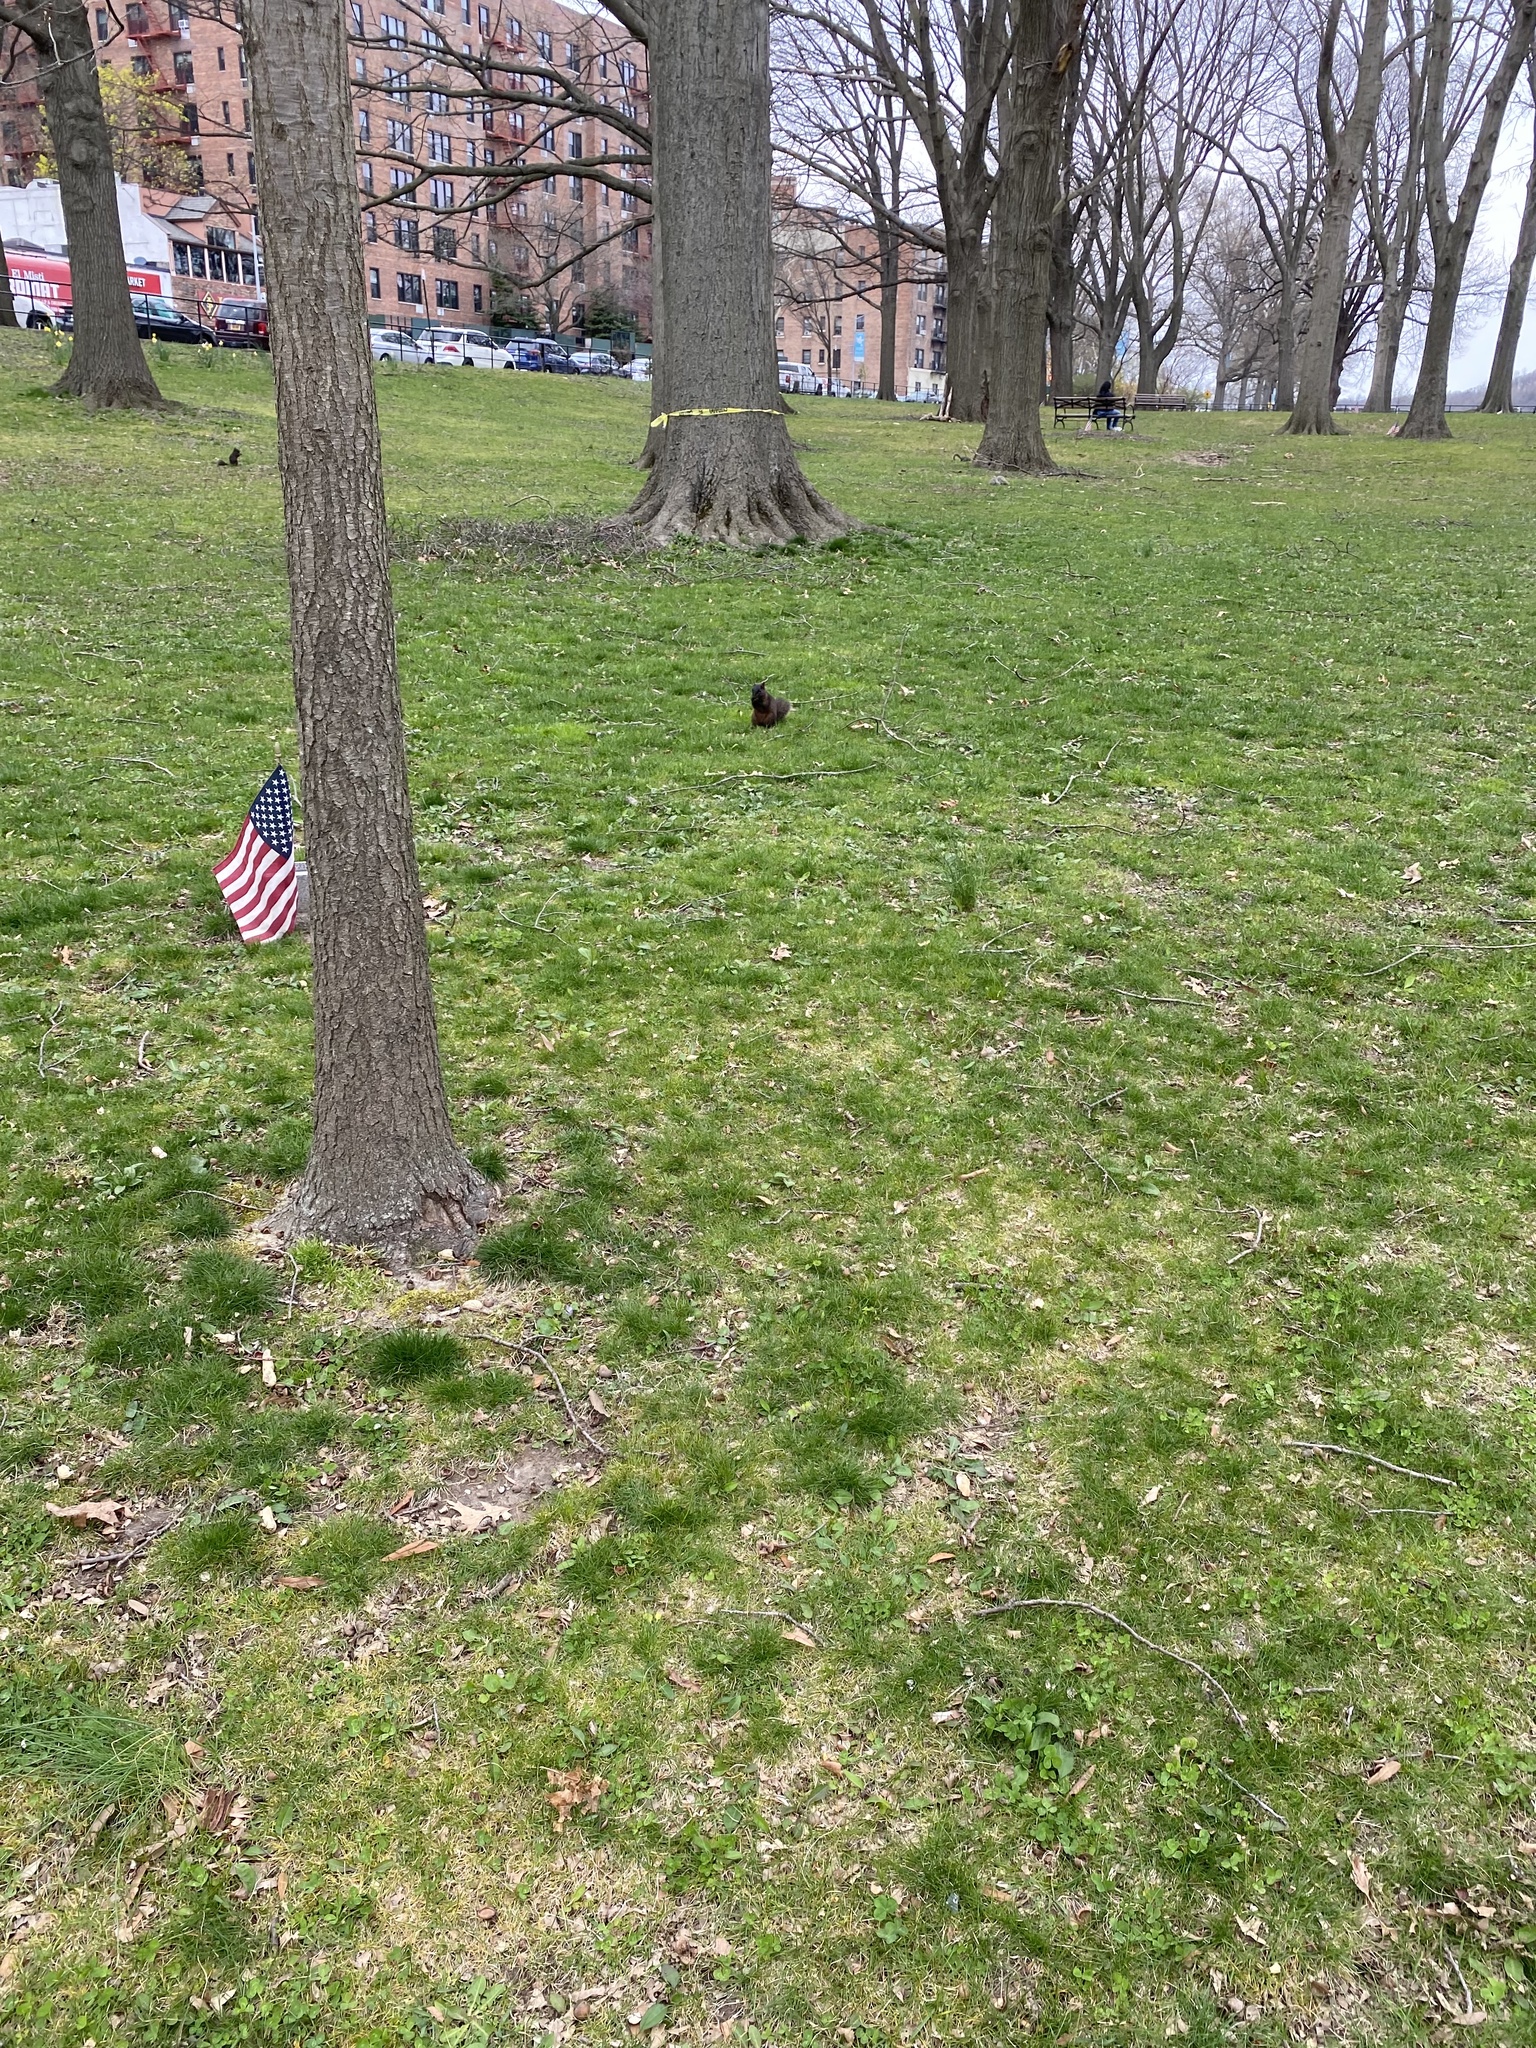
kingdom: Animalia
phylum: Chordata
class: Mammalia
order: Rodentia
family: Sciuridae
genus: Sciurus
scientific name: Sciurus carolinensis
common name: Eastern gray squirrel
